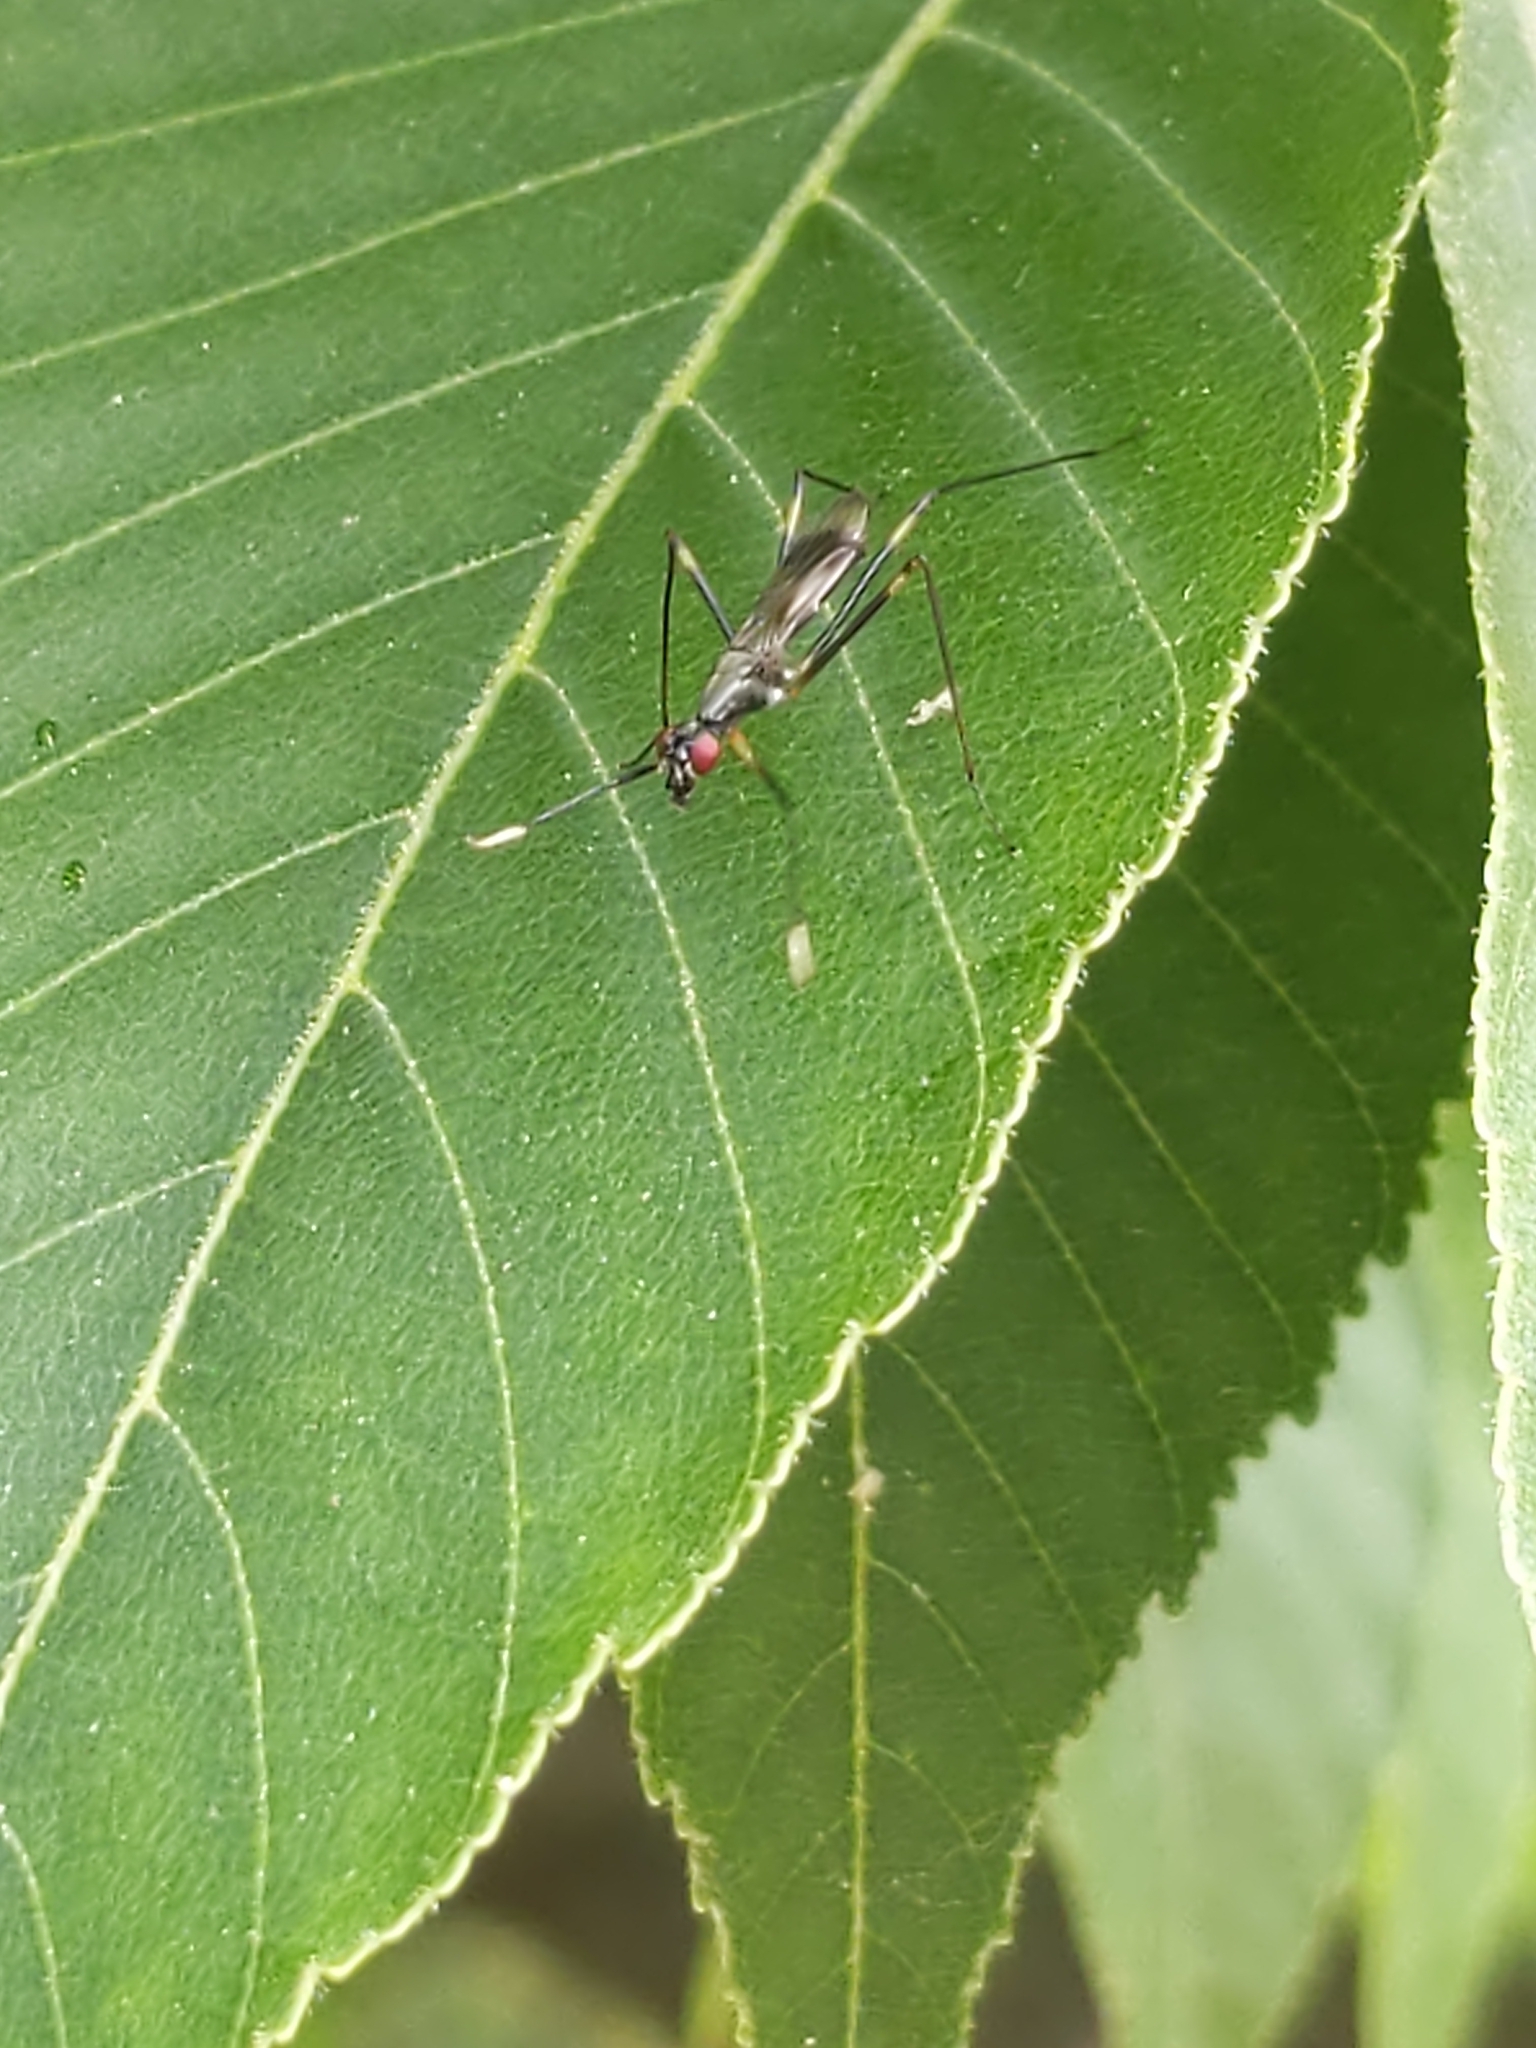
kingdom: Animalia
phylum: Arthropoda
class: Insecta
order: Diptera
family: Micropezidae
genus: Rainieria
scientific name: Rainieria antennaepes
